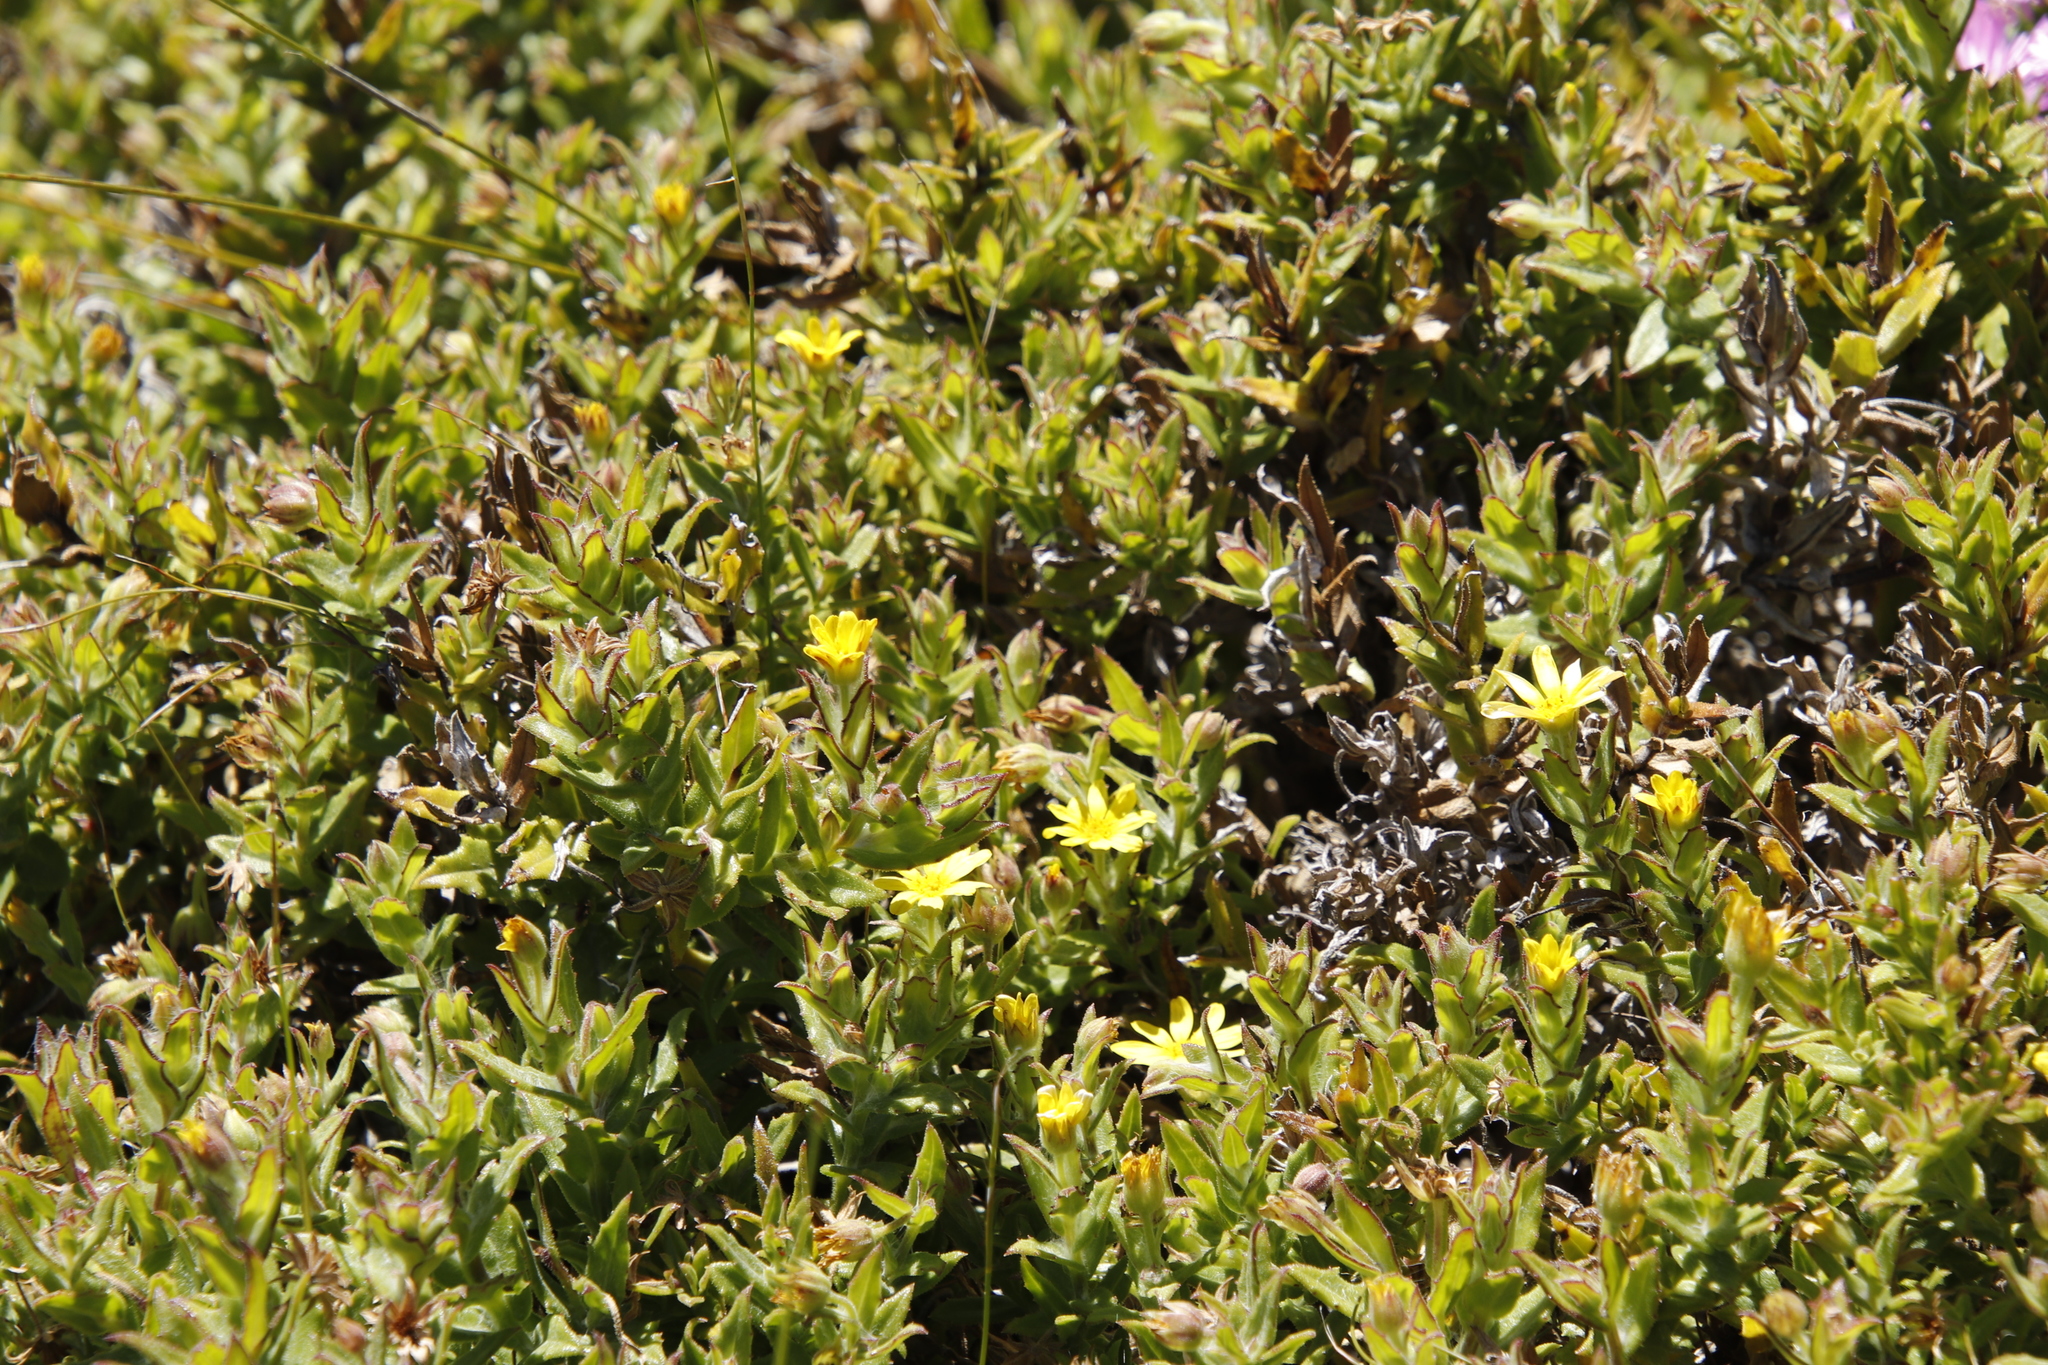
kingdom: Plantae
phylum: Tracheophyta
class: Magnoliopsida
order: Asterales
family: Asteraceae
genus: Osteospermum
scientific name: Osteospermum ilicifolium
